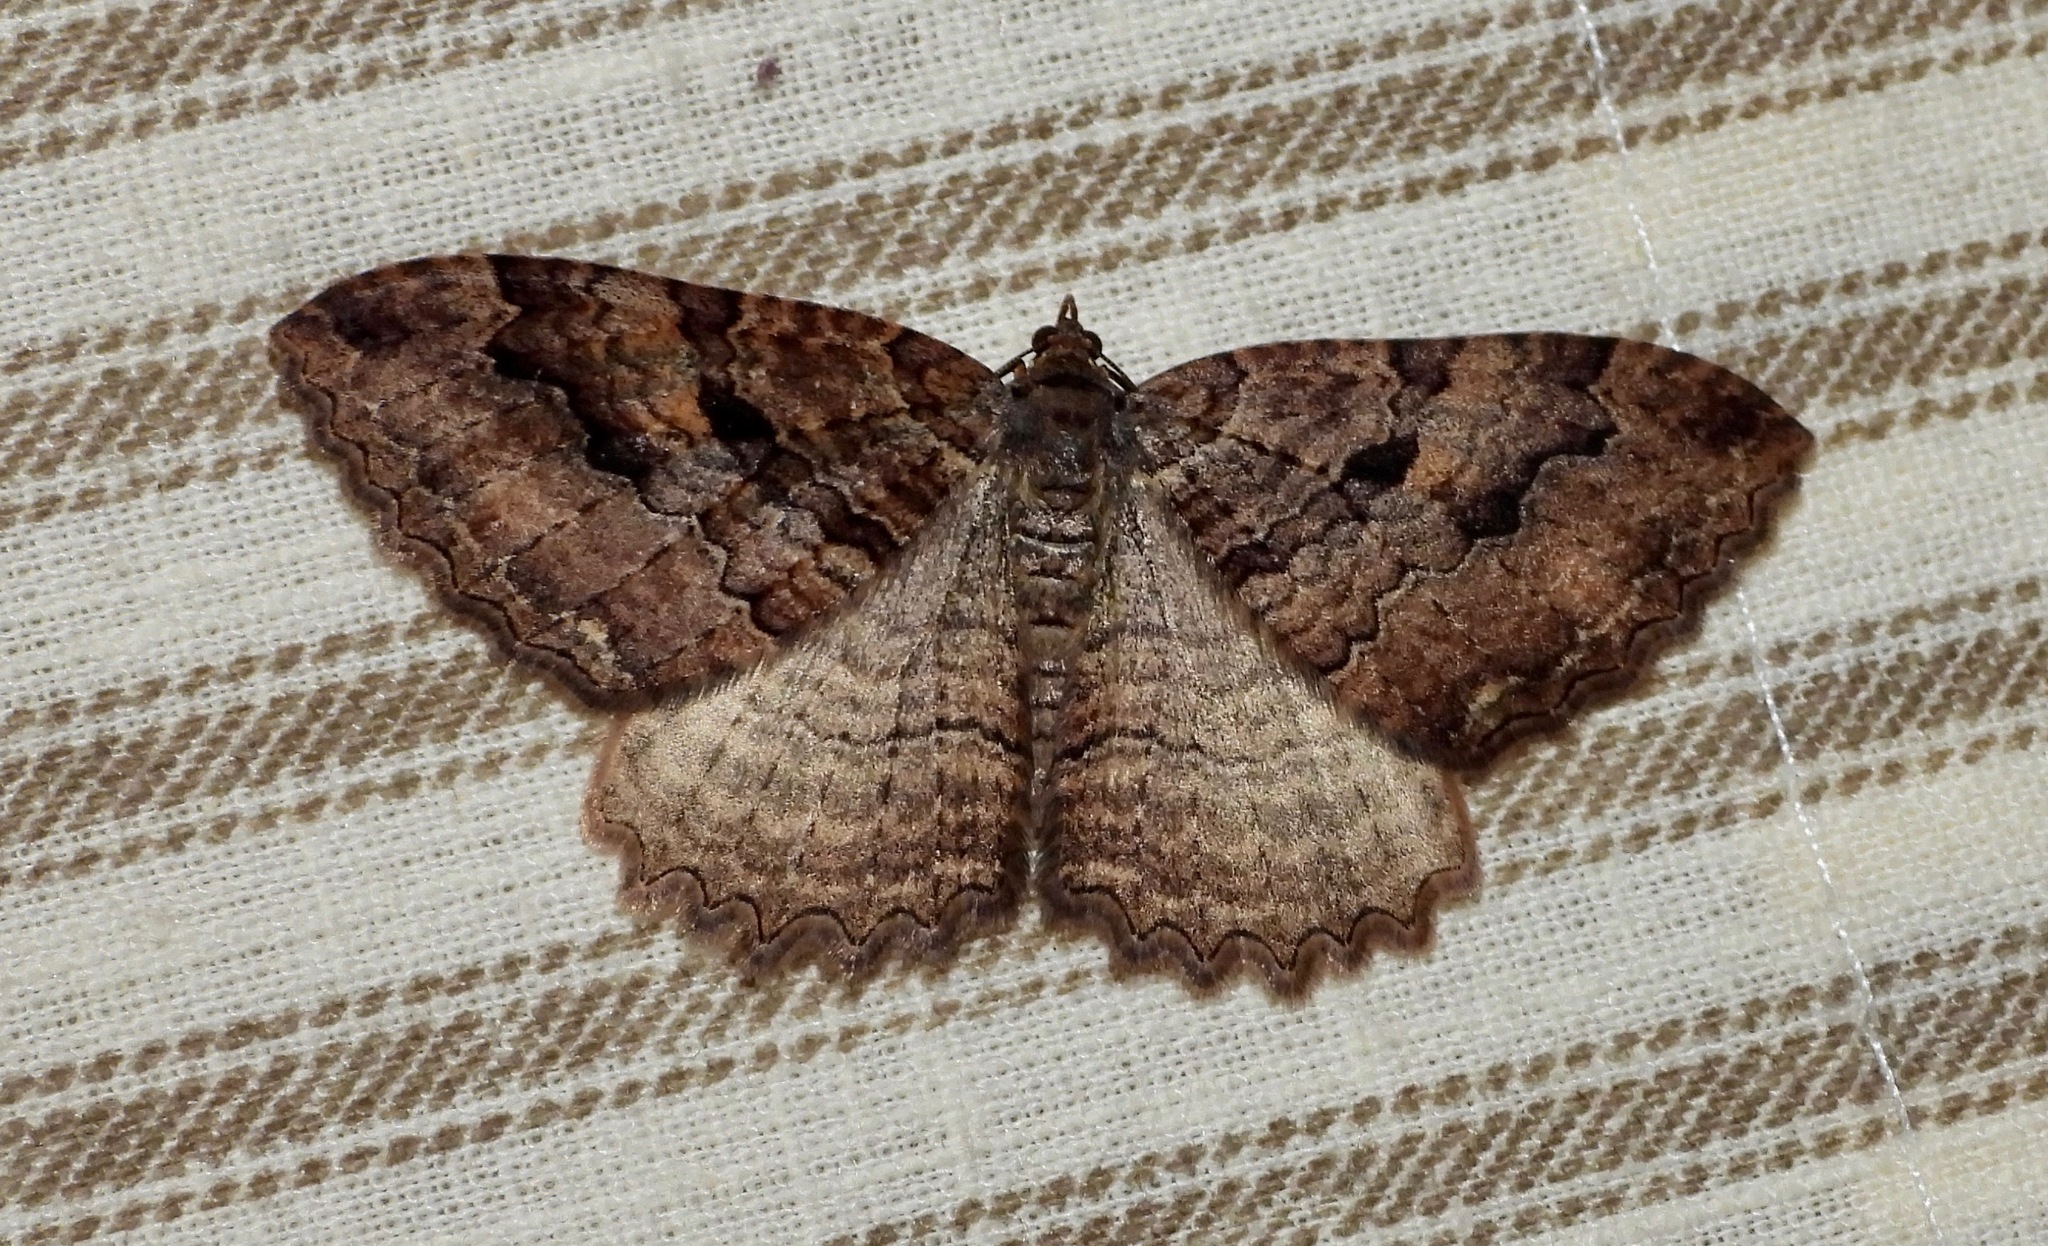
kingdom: Animalia
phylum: Arthropoda
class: Insecta
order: Lepidoptera
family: Geometridae
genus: Triphosa
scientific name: Triphosa haesitata
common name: Tissue moth
